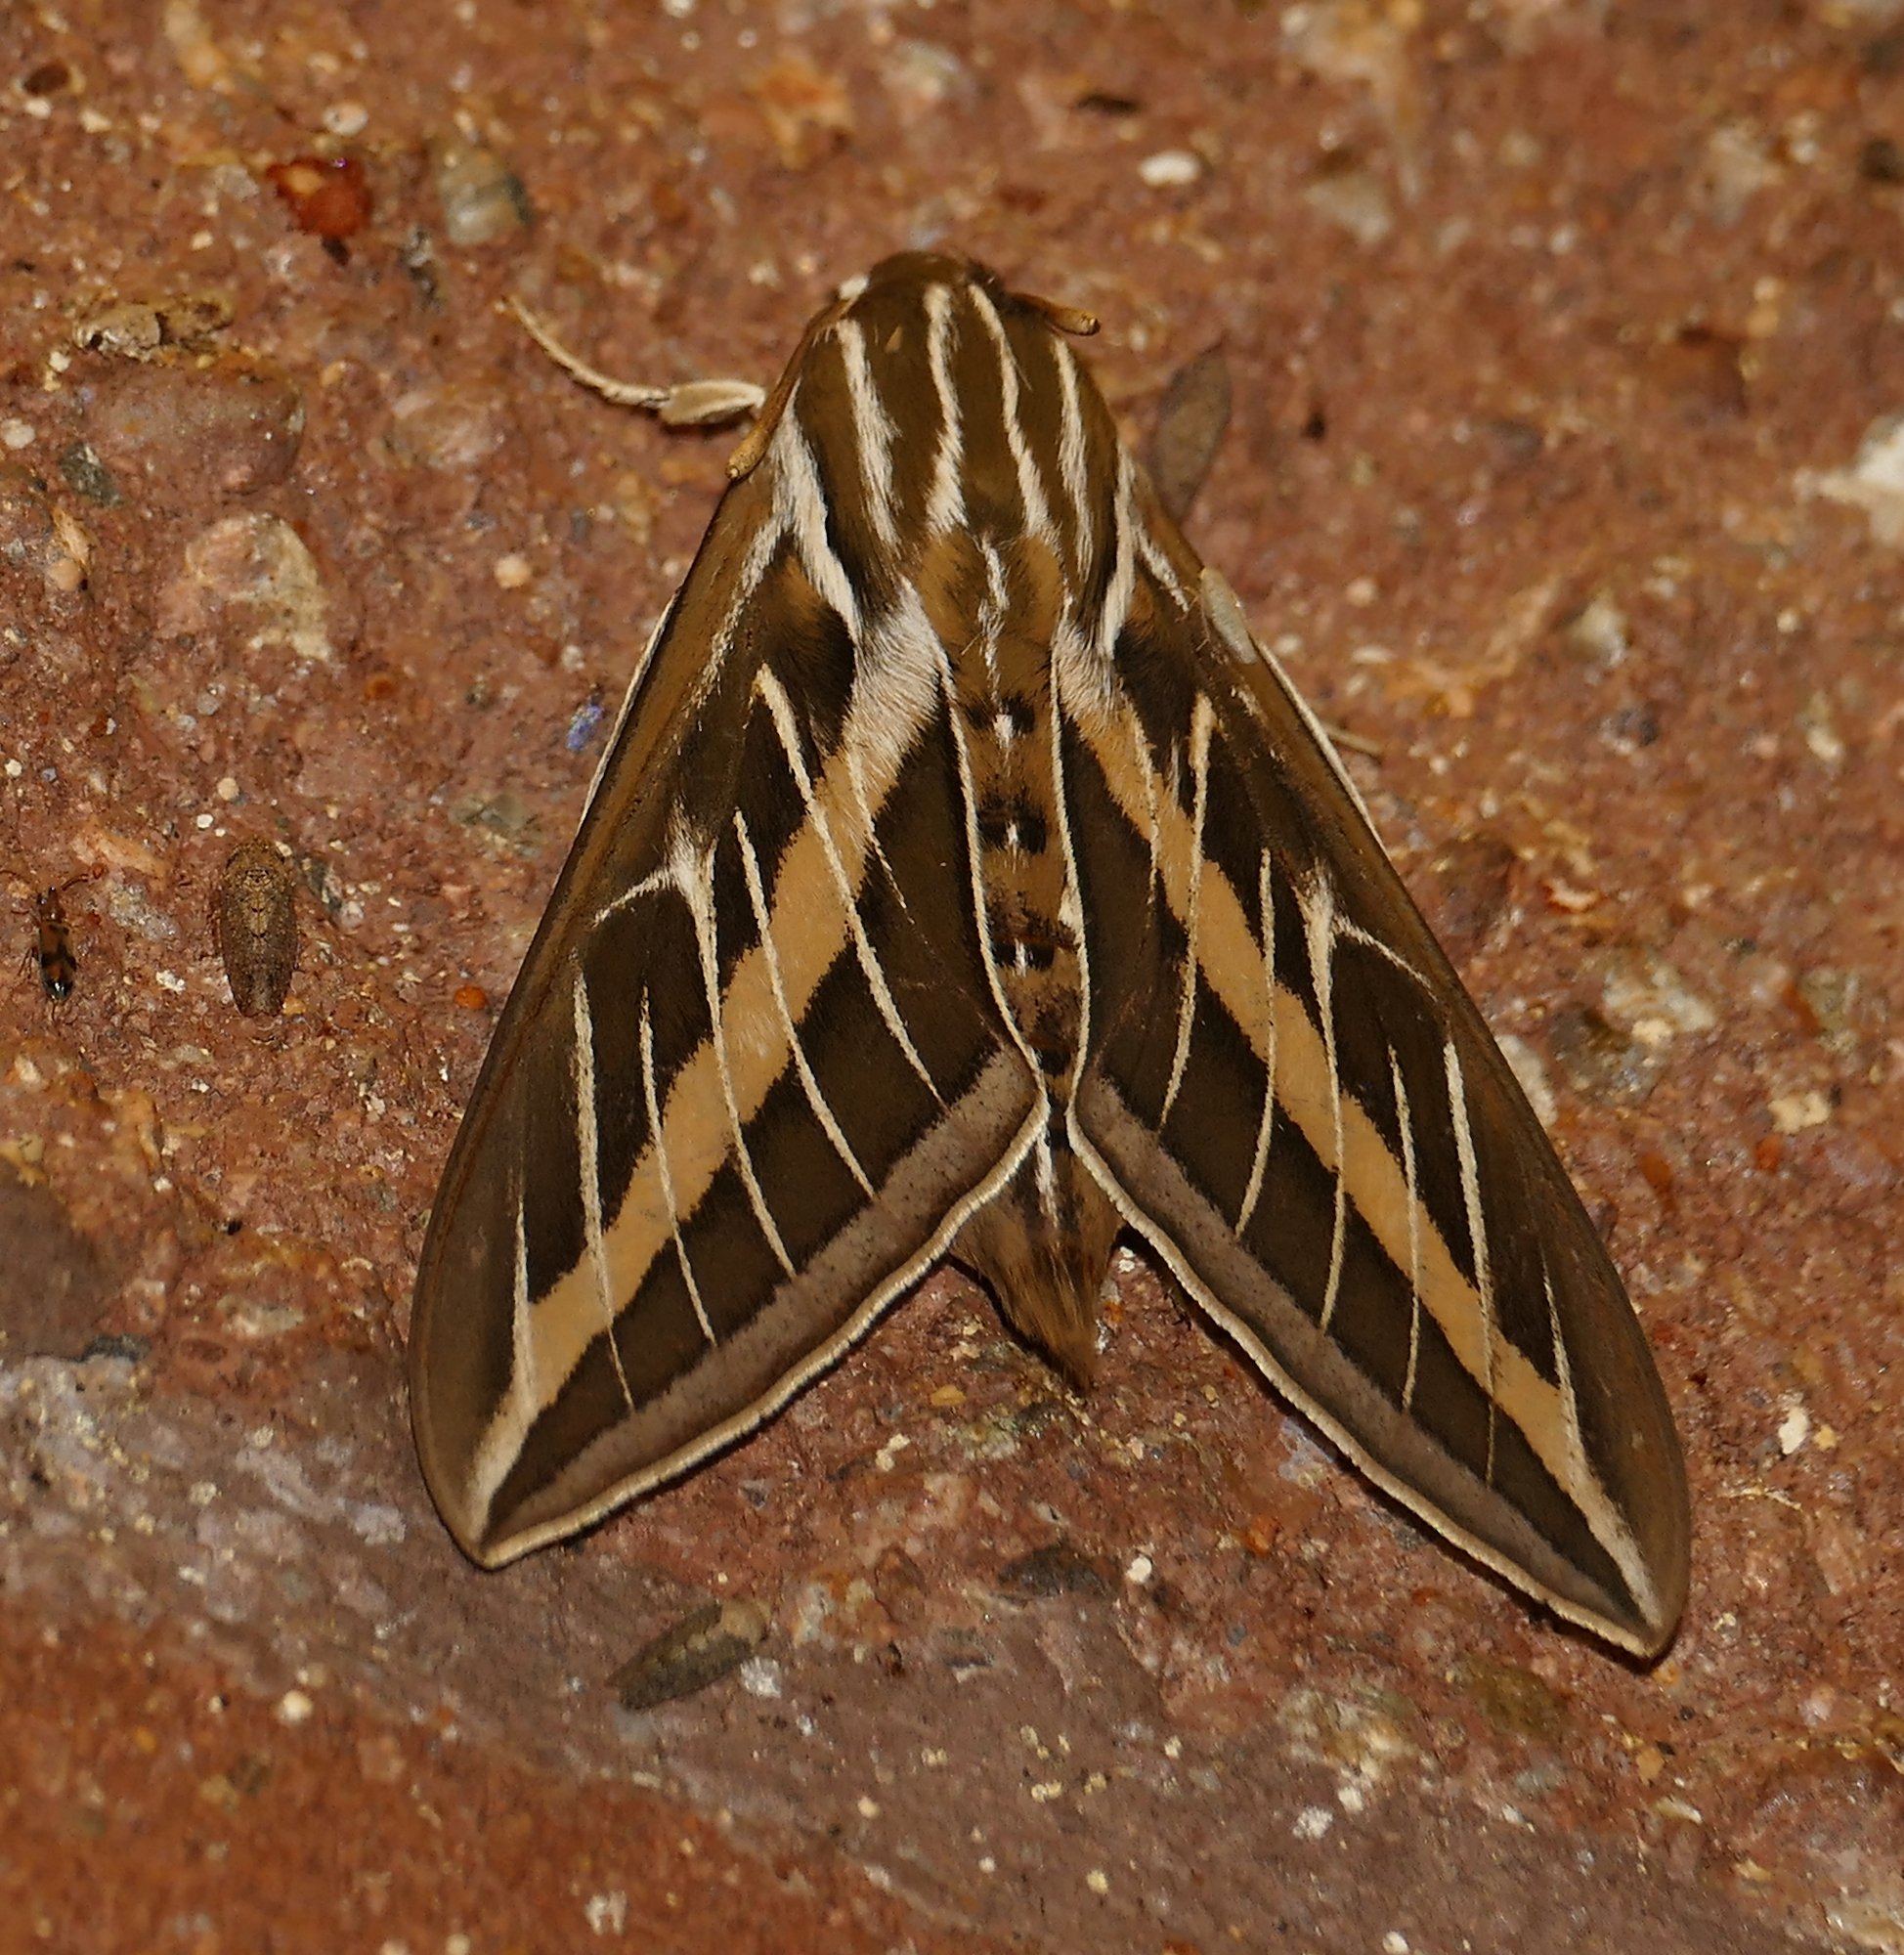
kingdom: Animalia
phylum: Arthropoda
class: Insecta
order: Lepidoptera
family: Sphingidae
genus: Hyles
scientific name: Hyles lineata
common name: White-lined sphinx
